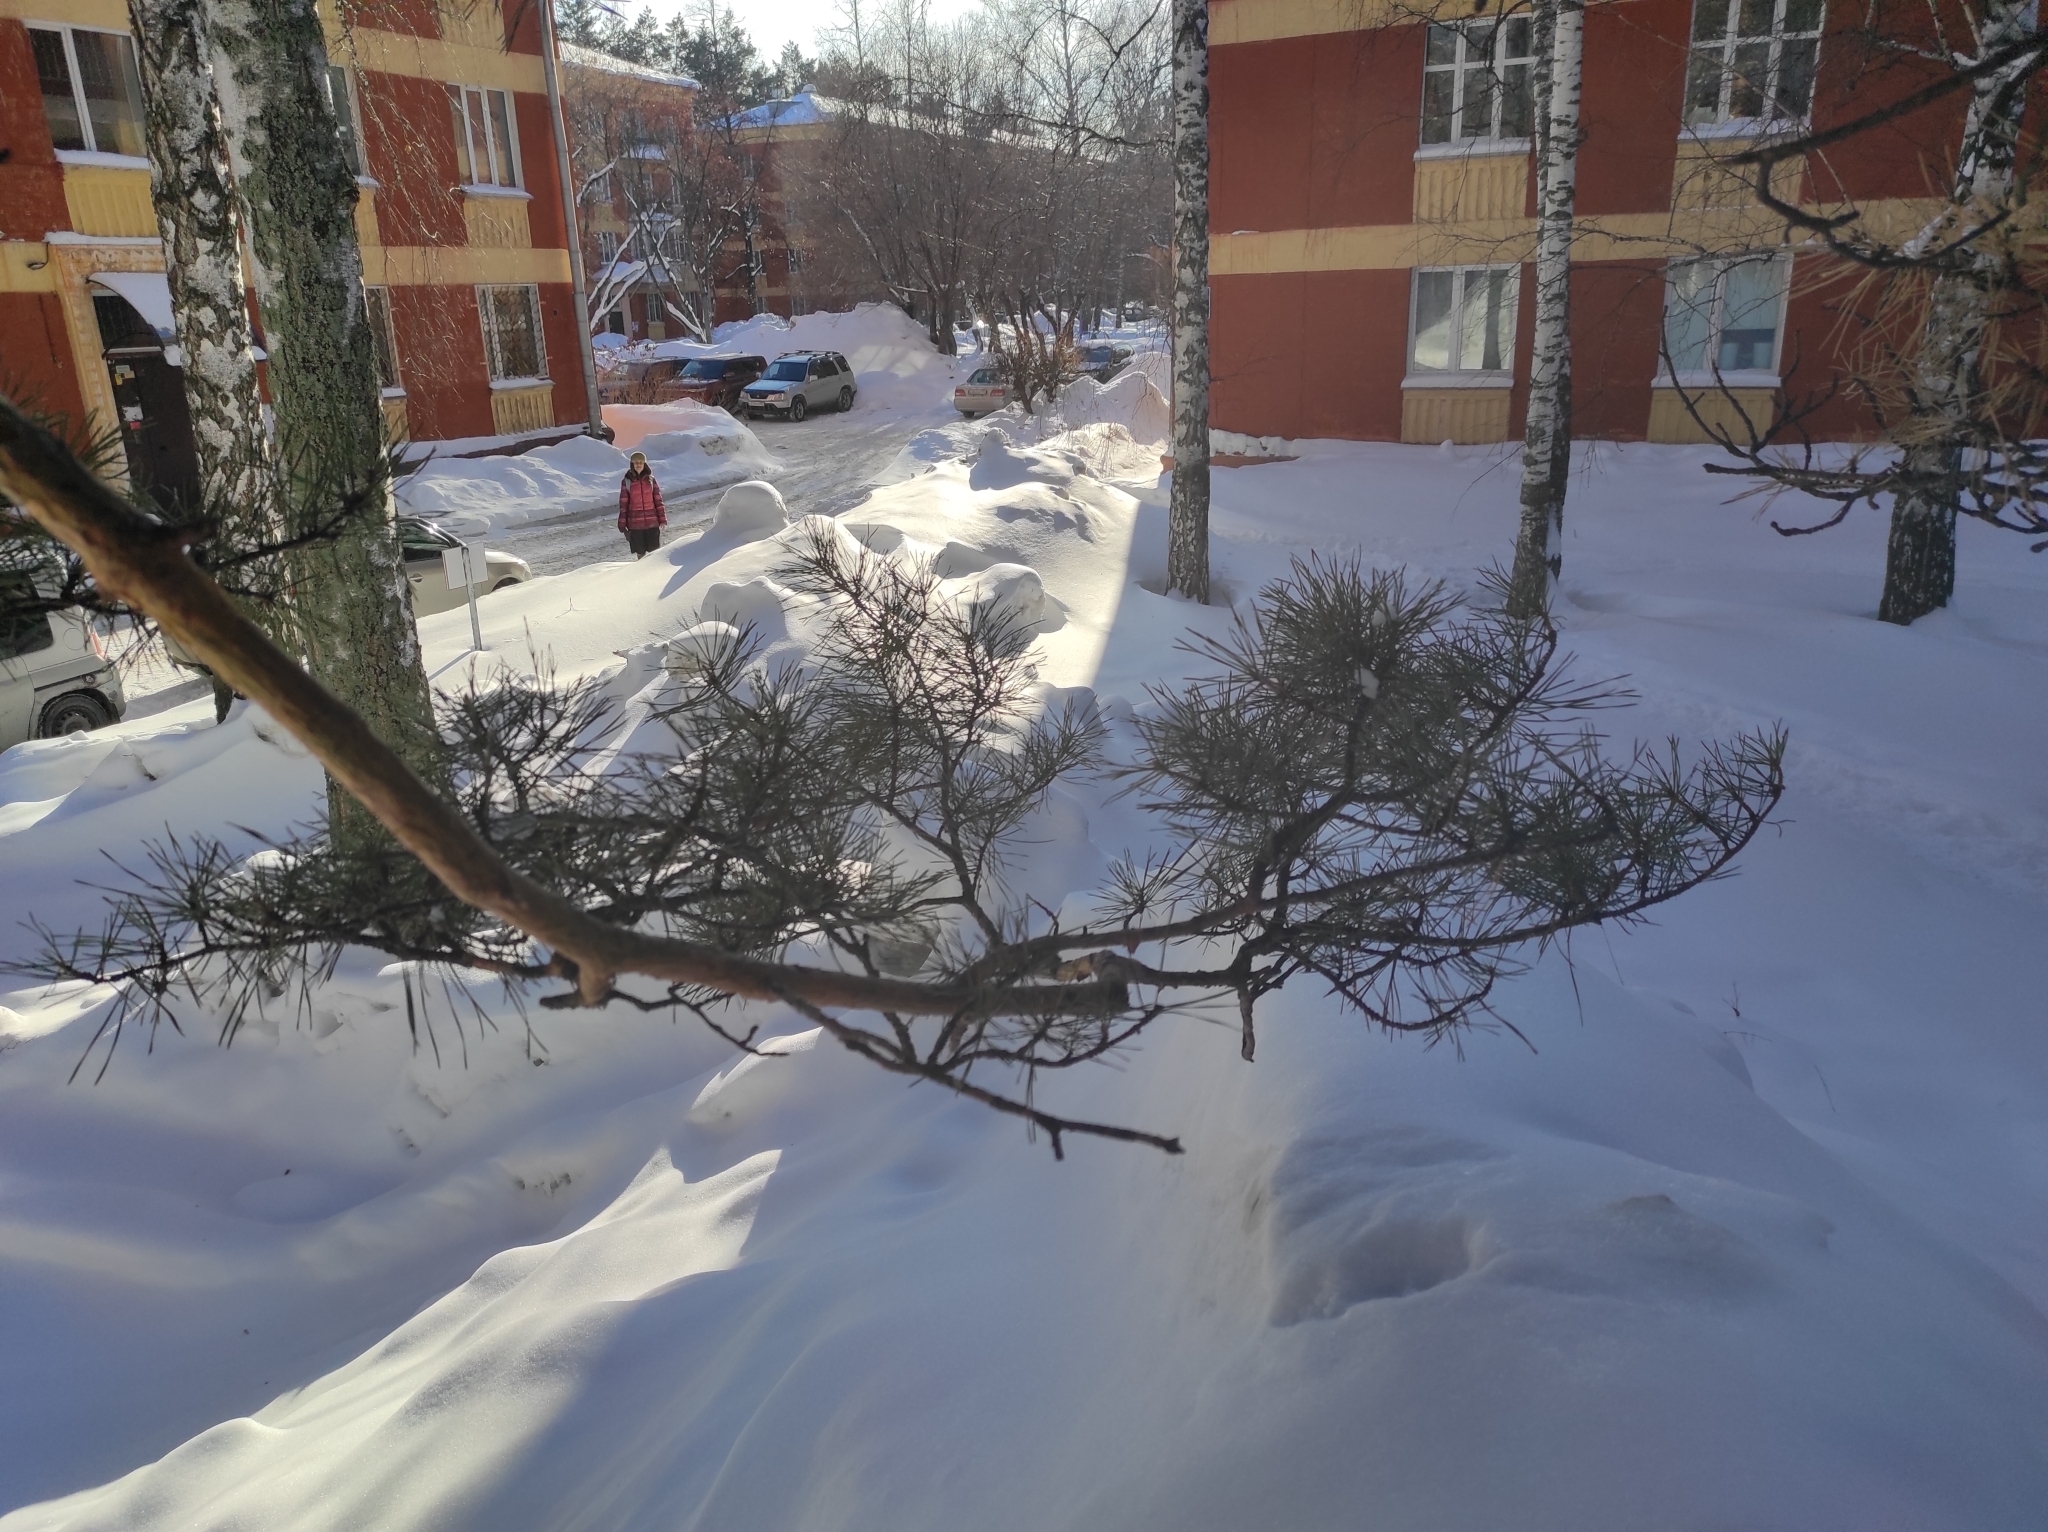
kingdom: Plantae
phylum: Tracheophyta
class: Magnoliopsida
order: Fagales
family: Betulaceae
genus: Betula
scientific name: Betula pendula
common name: Silver birch
